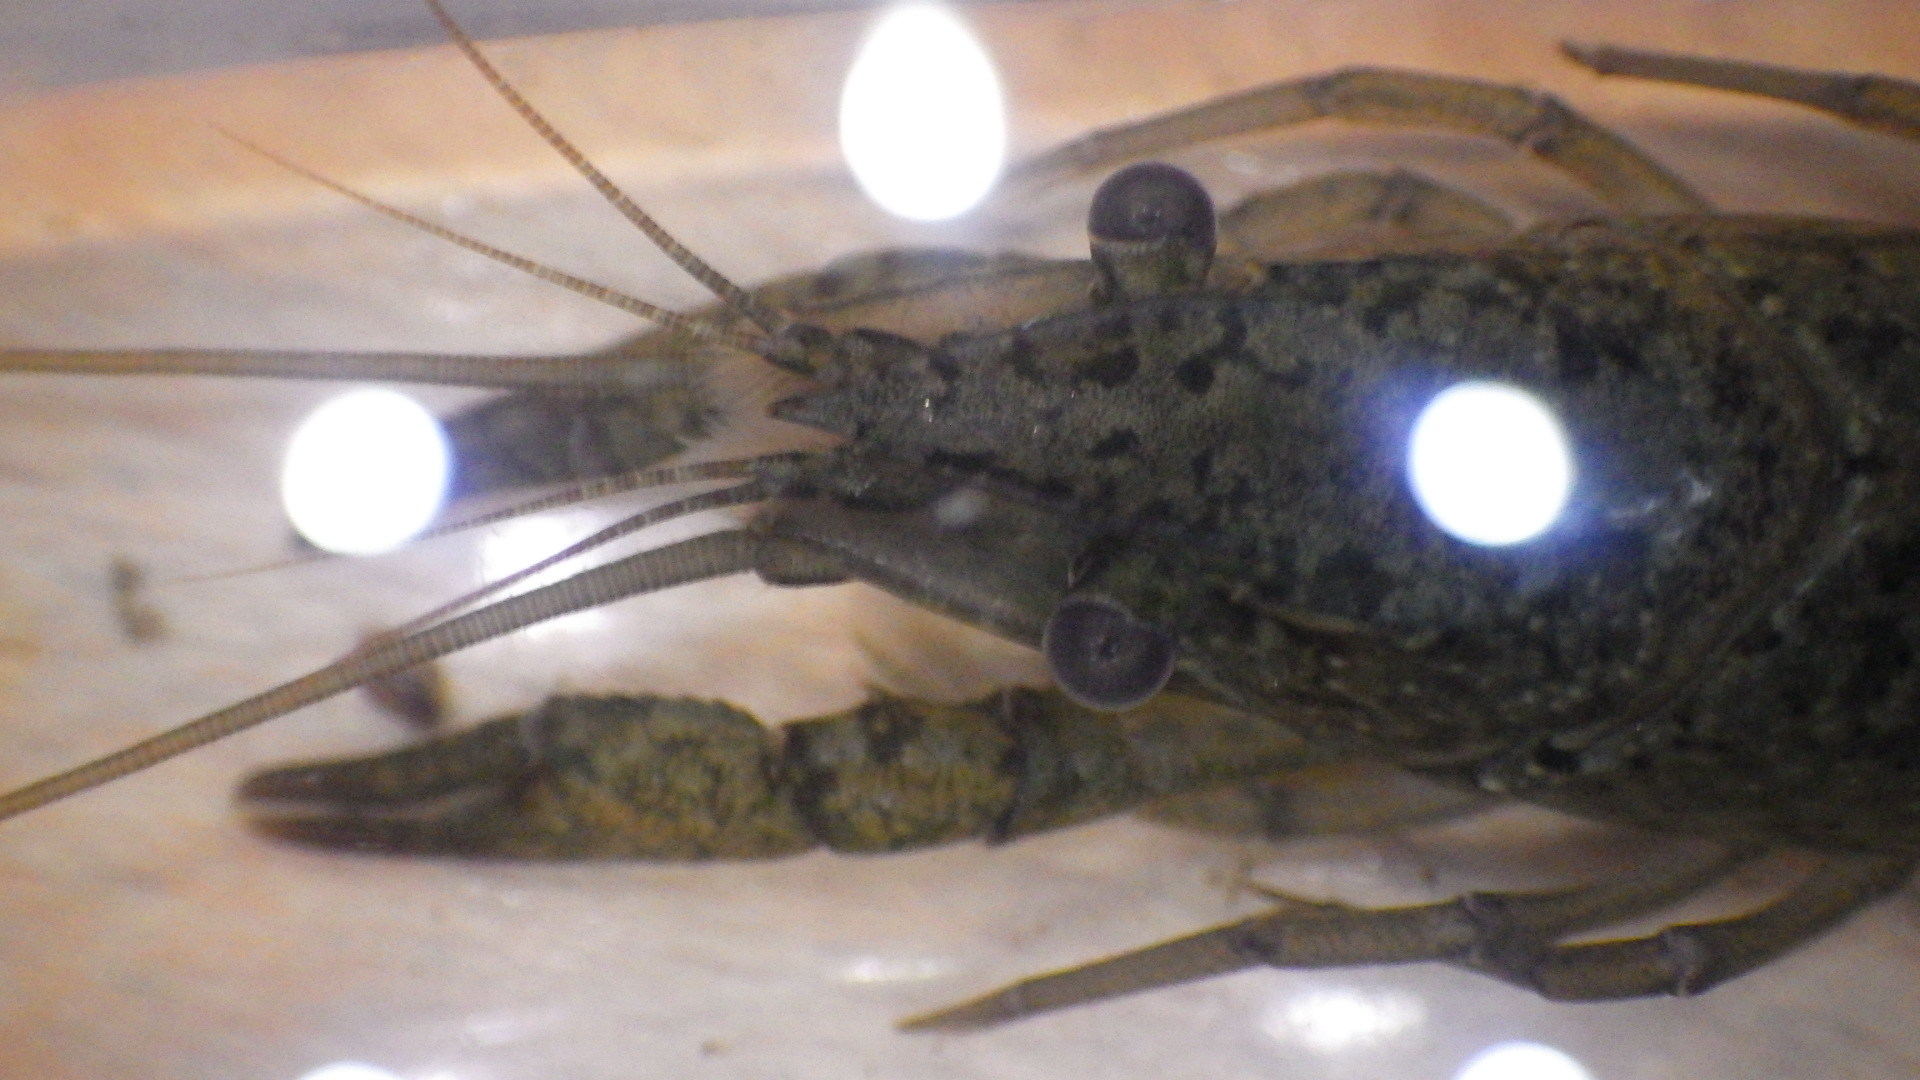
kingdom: Animalia
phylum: Arthropoda
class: Malacostraca
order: Decapoda
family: Cambaridae
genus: Procambarus
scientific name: Procambarus clarkii
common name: Red swamp crayfish
